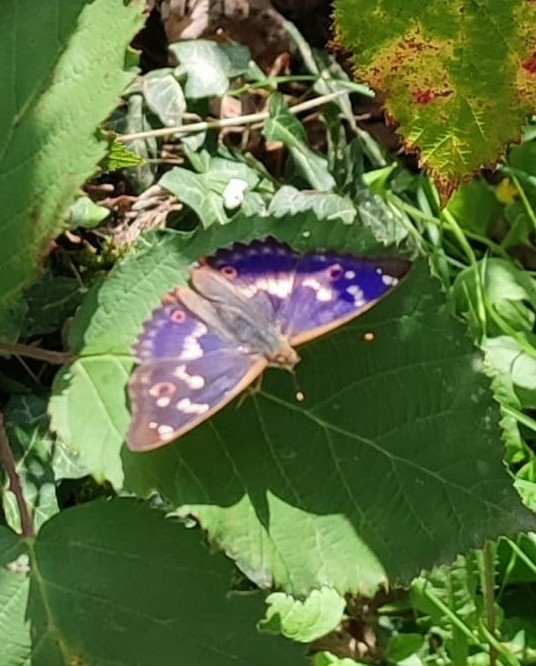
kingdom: Animalia
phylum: Arthropoda
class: Insecta
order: Lepidoptera
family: Nymphalidae
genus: Apatura
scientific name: Apatura ilia
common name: Lesser purple emperor
